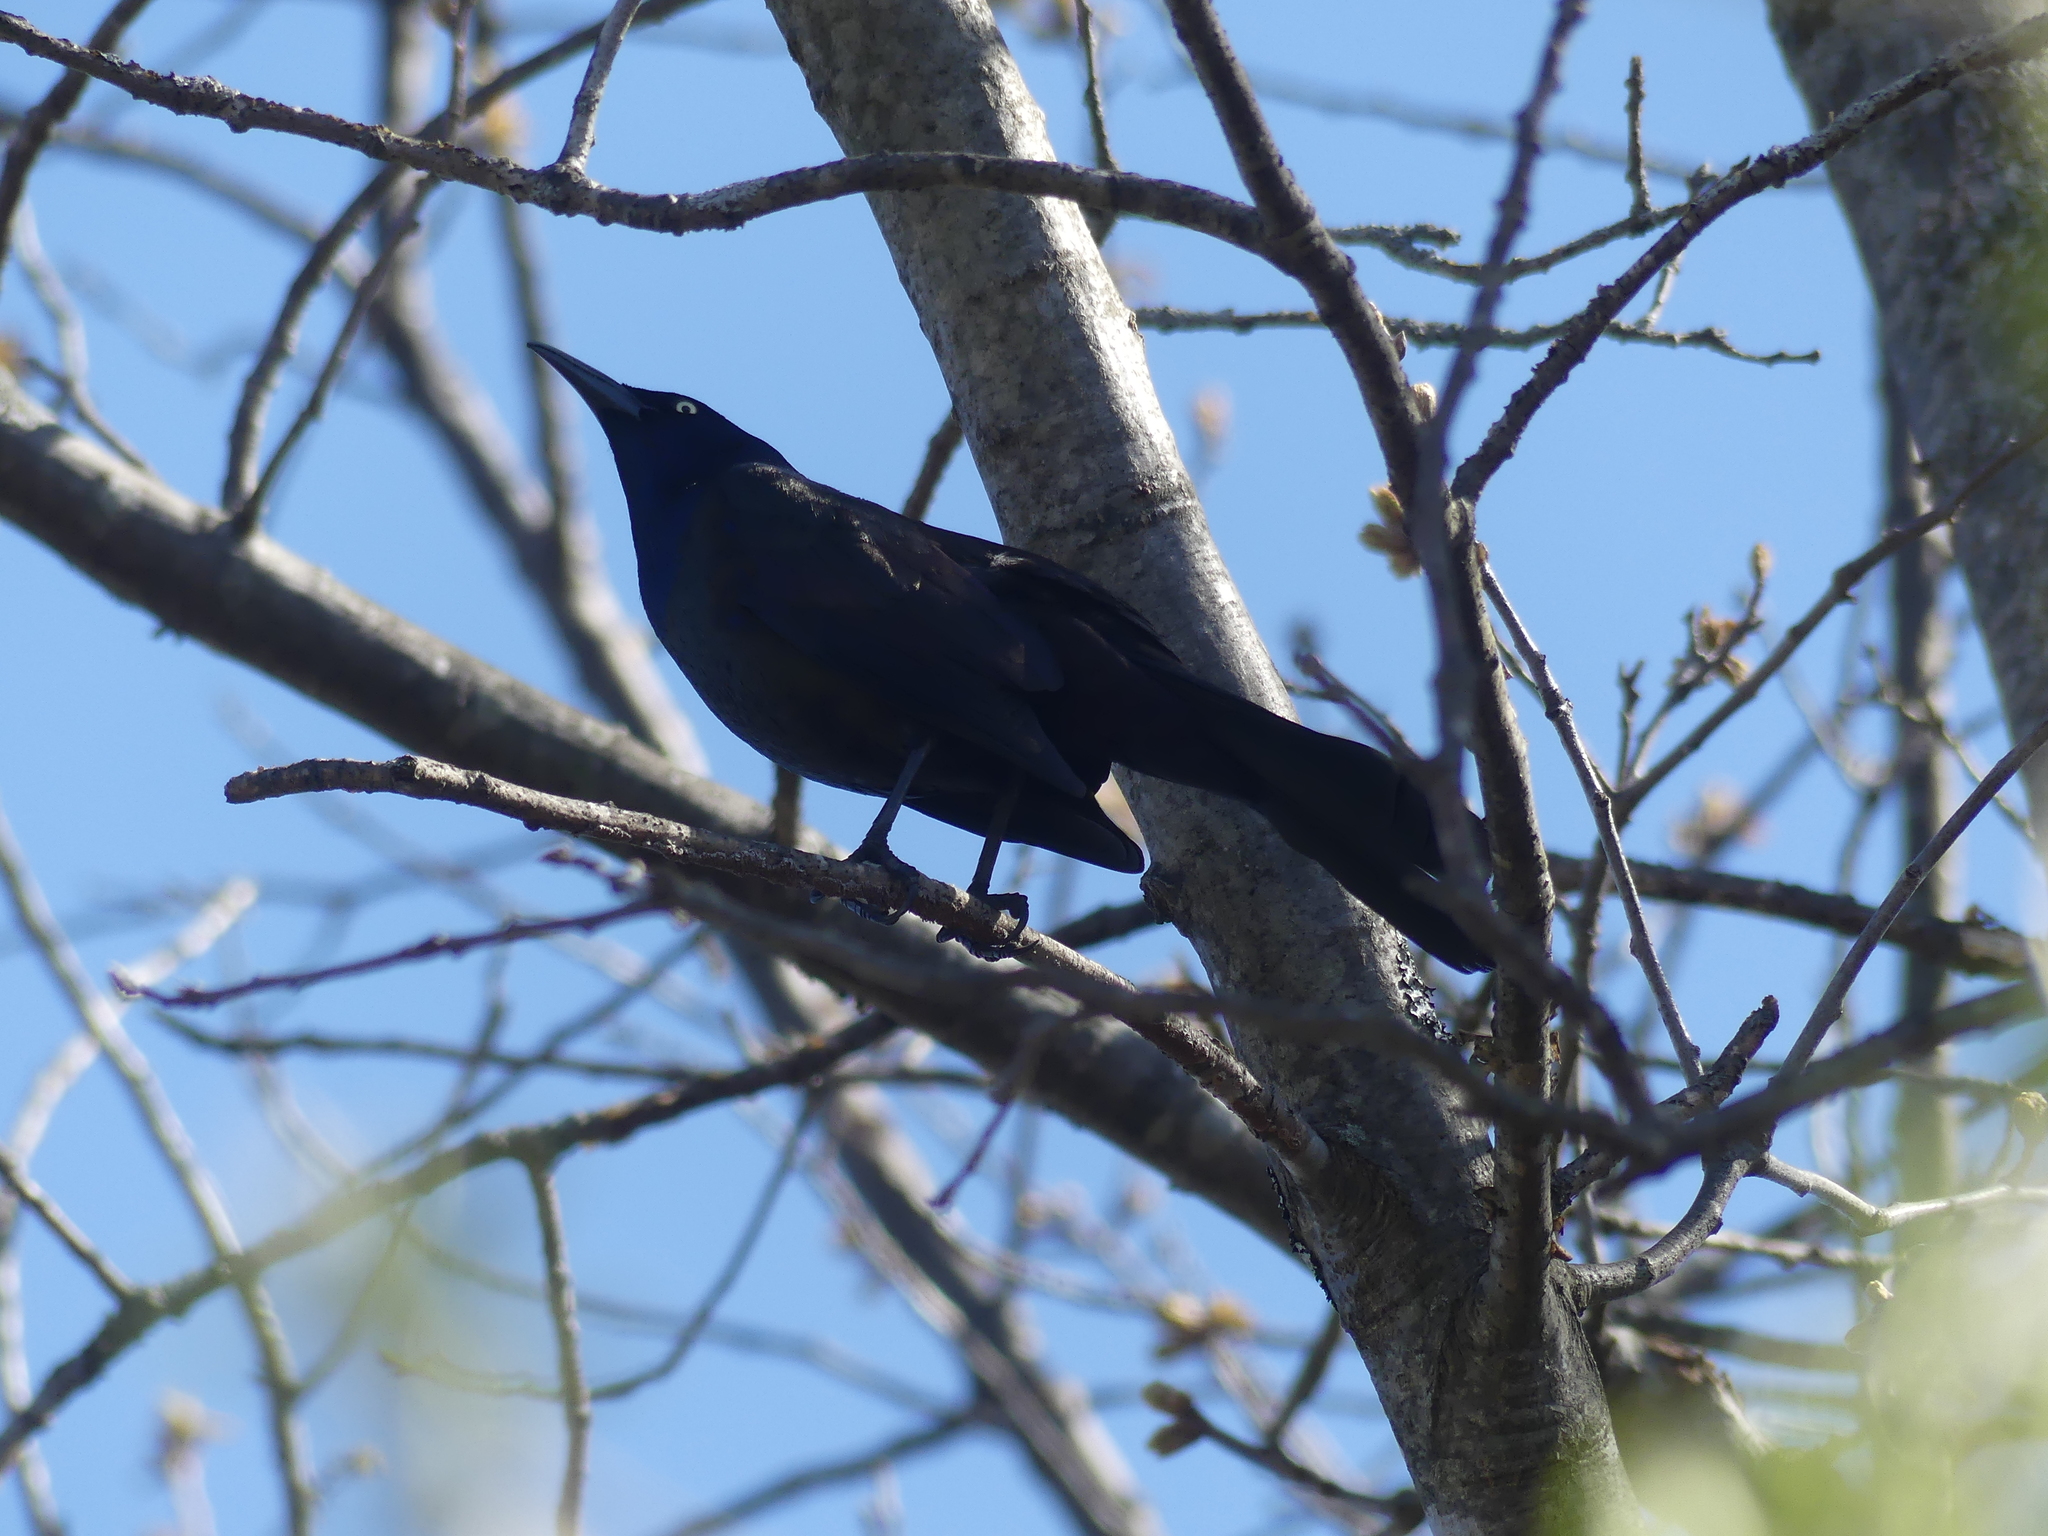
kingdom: Animalia
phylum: Chordata
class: Aves
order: Passeriformes
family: Icteridae
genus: Quiscalus
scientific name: Quiscalus quiscula
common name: Common grackle
